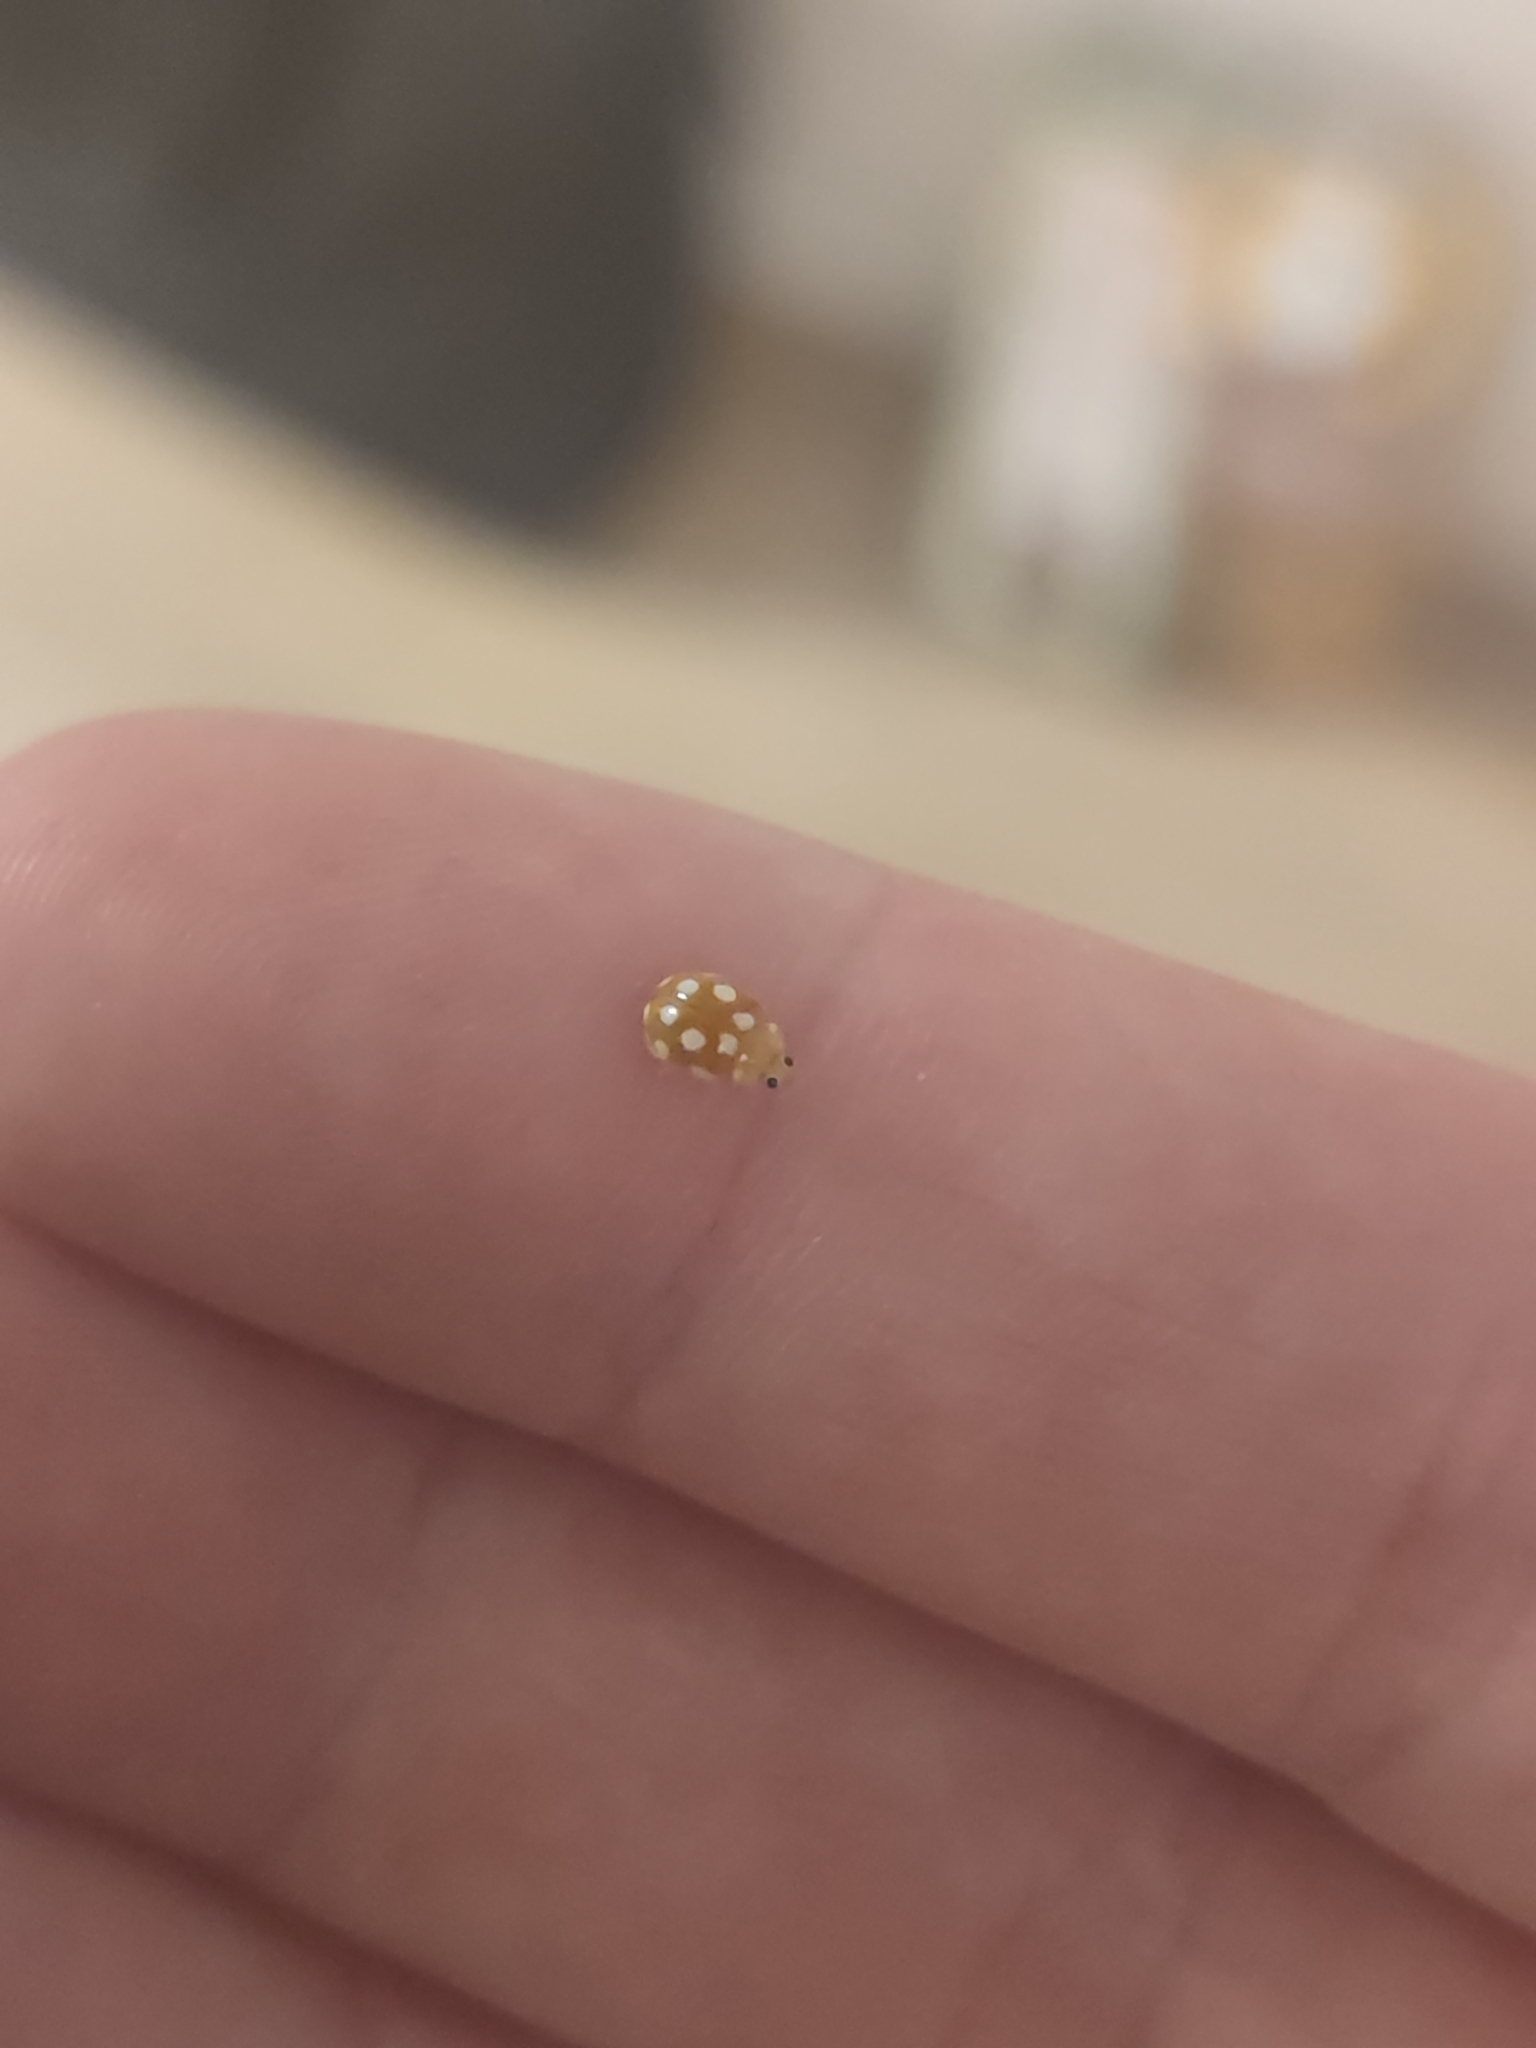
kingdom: Animalia
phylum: Arthropoda
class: Insecta
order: Coleoptera
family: Coccinellidae
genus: Vibidia
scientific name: Vibidia duodecimguttata
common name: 12-spot ladybird
